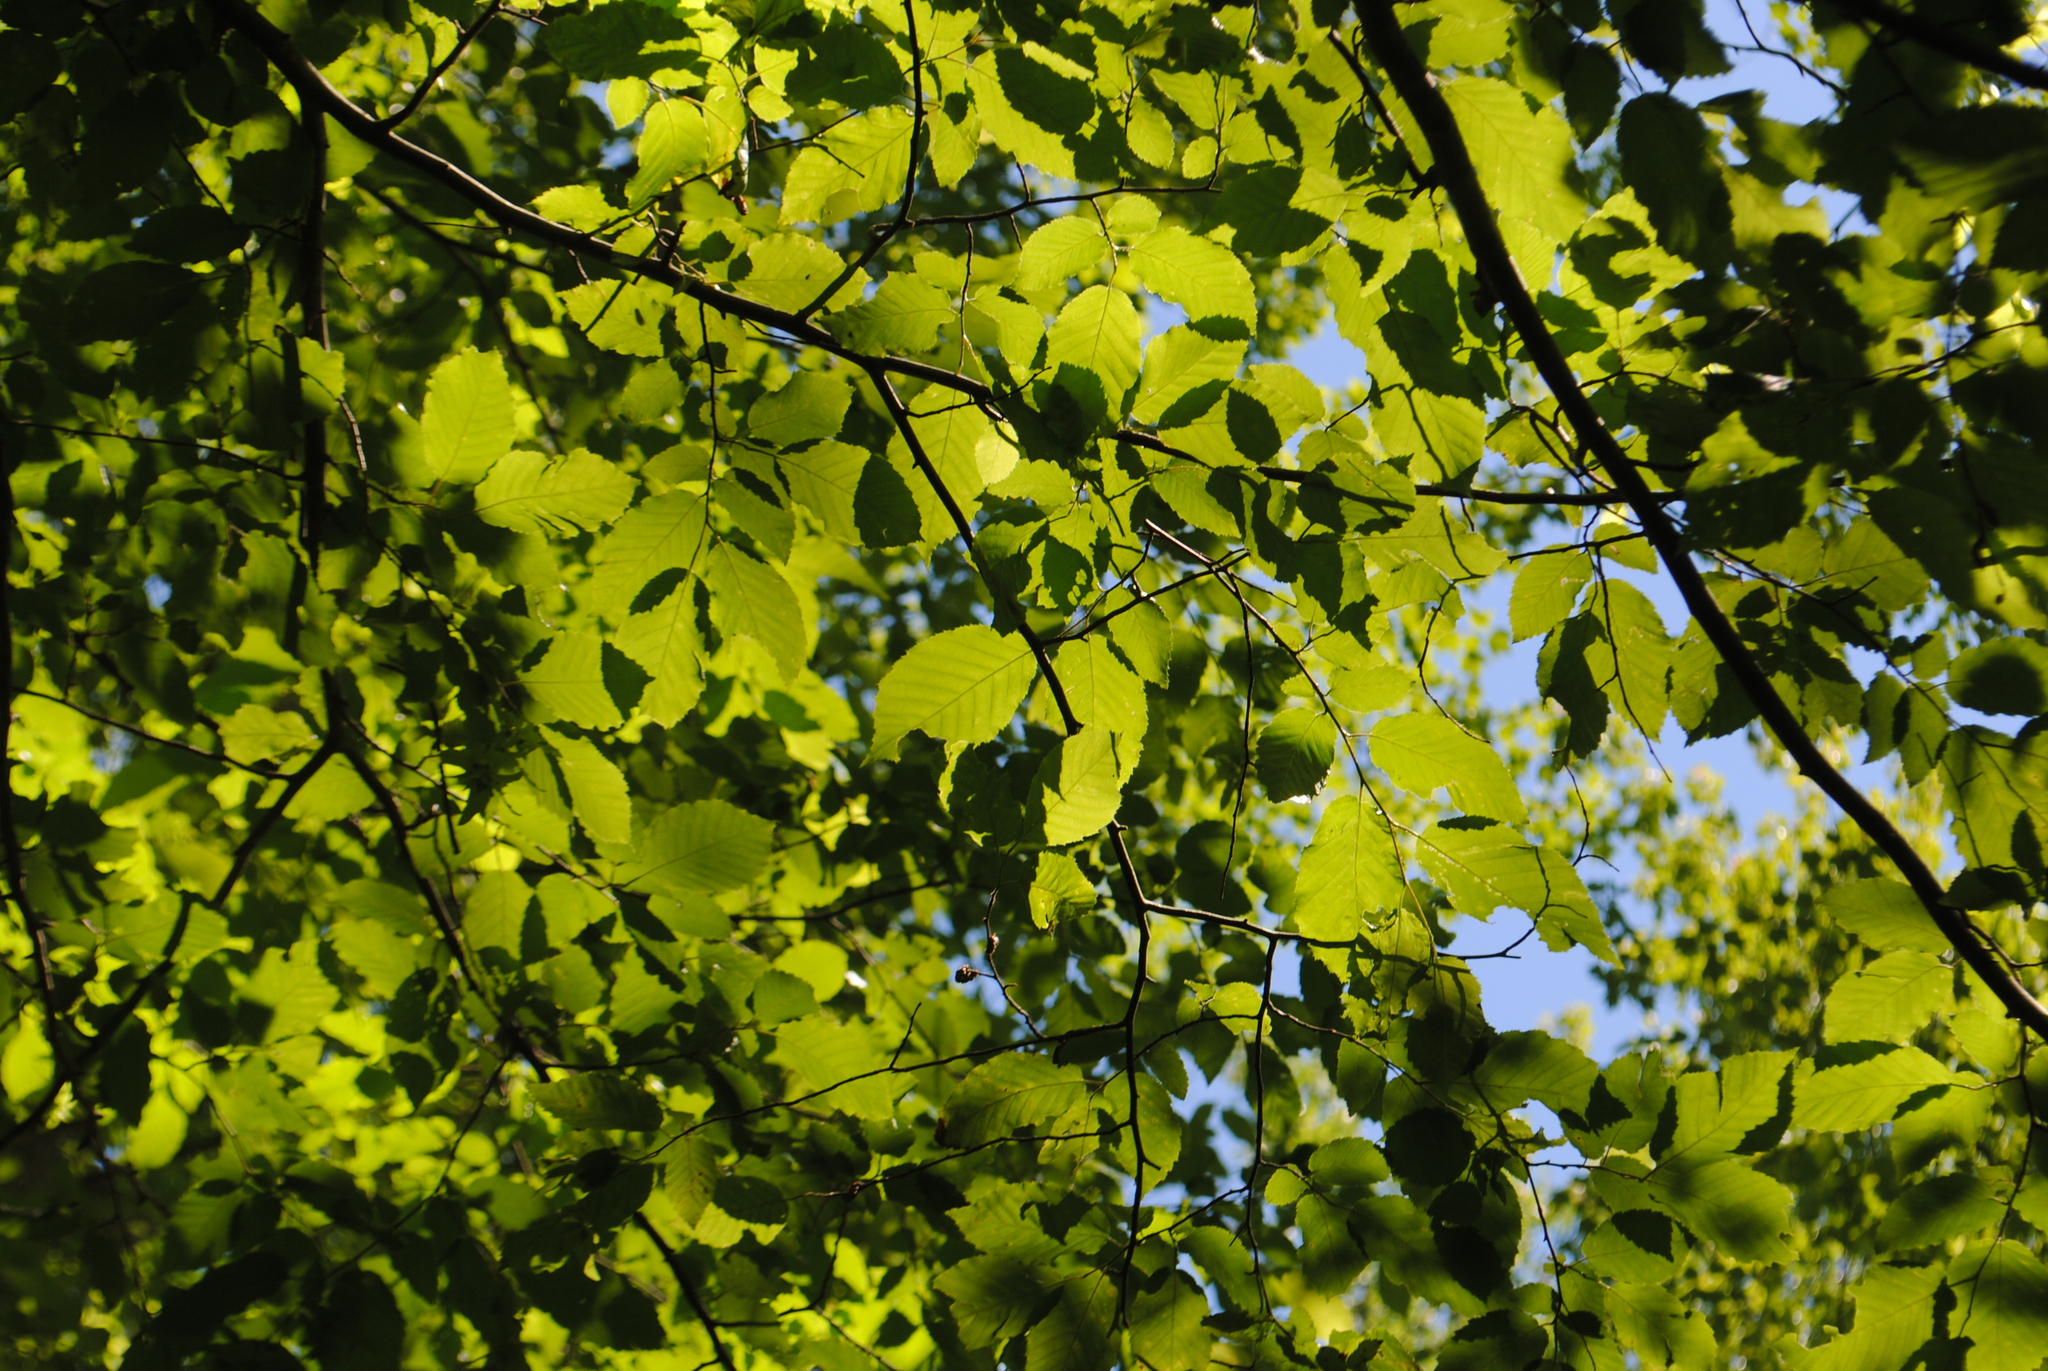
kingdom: Plantae
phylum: Tracheophyta
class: Magnoliopsida
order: Fagales
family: Betulaceae
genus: Carpinus
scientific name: Carpinus caroliniana
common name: American hornbeam
